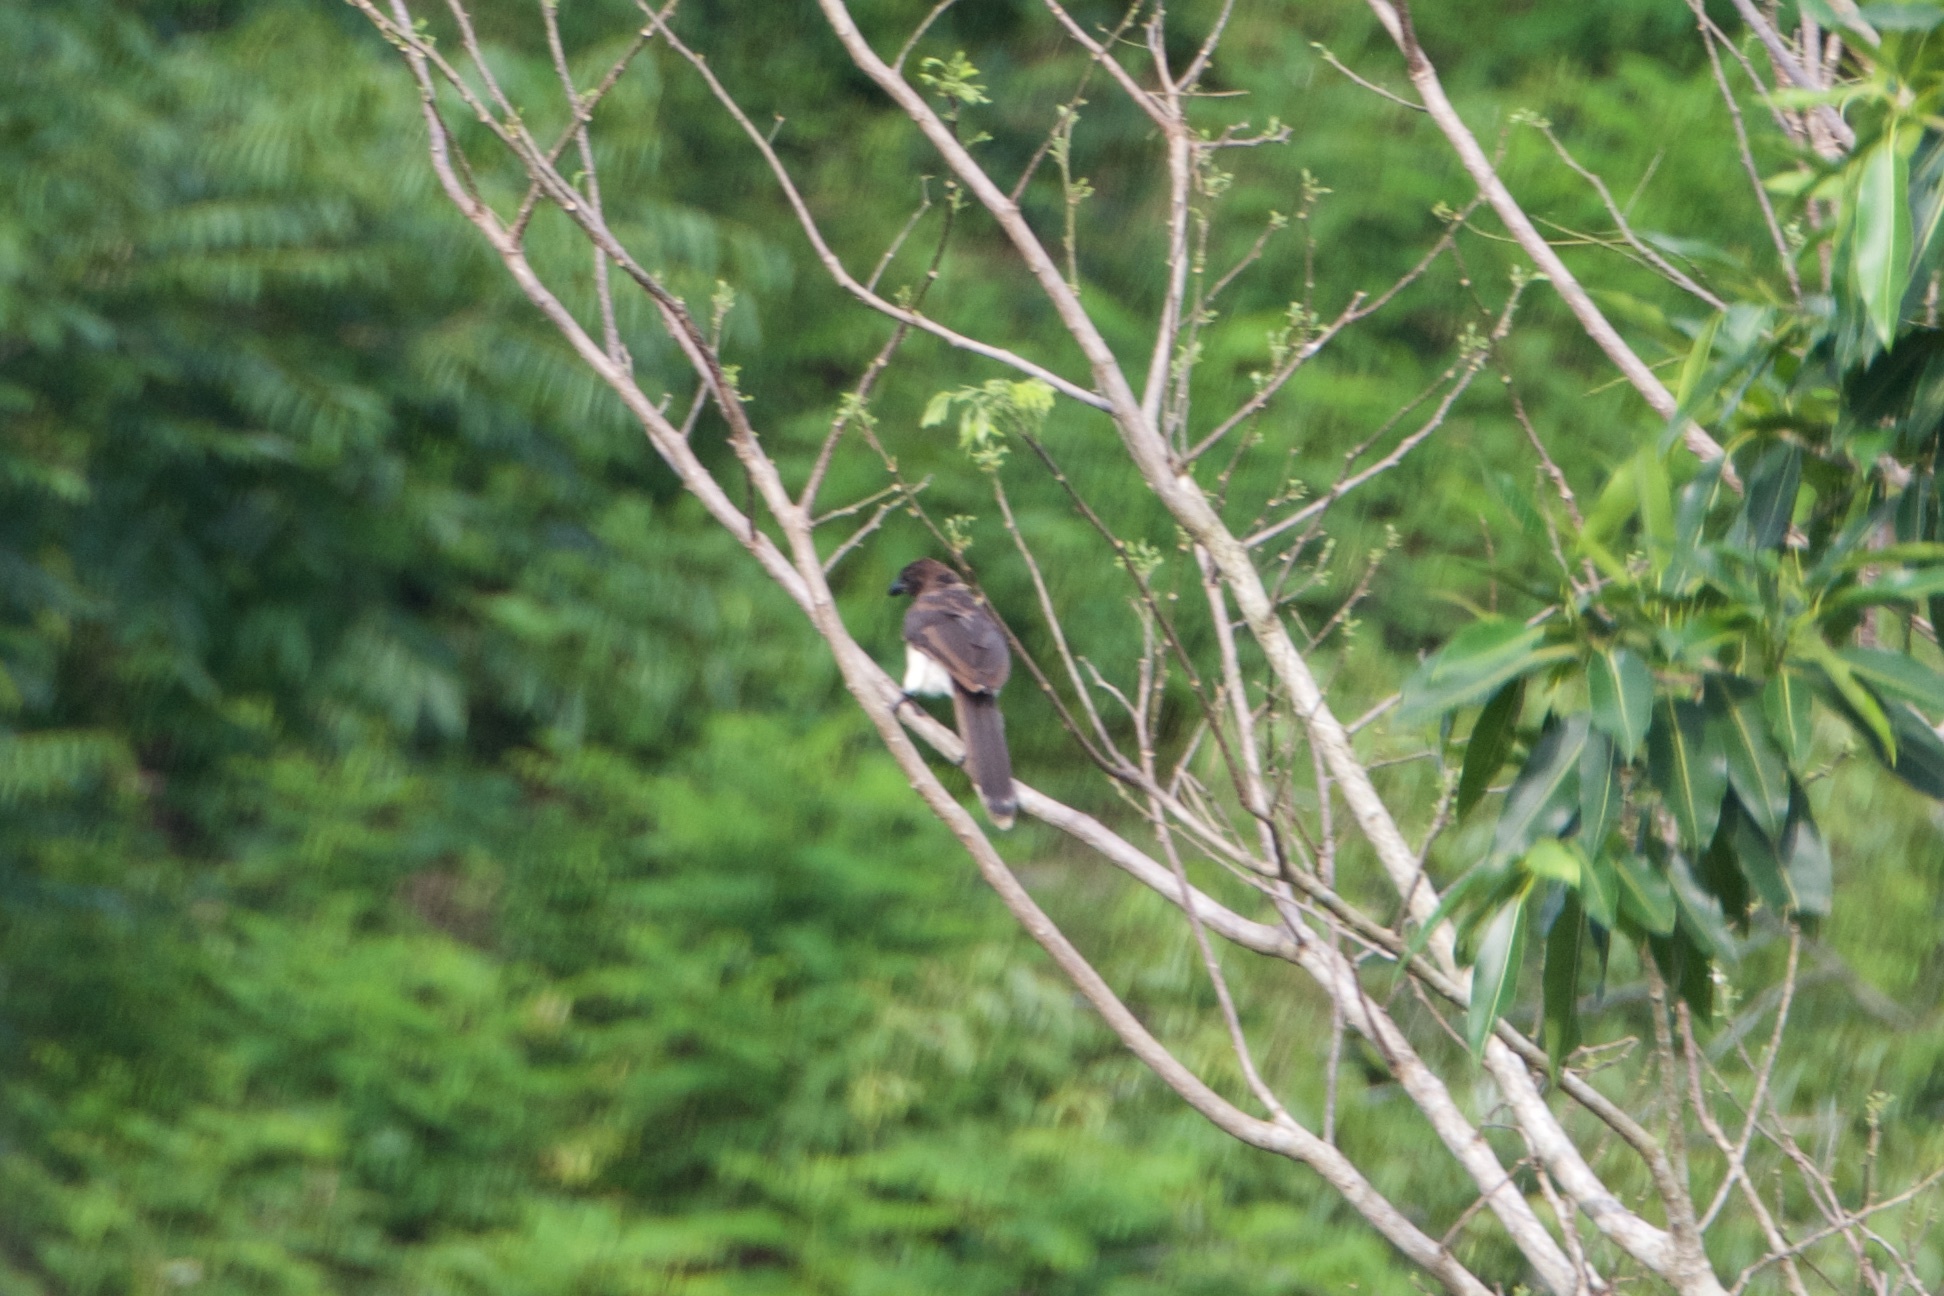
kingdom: Animalia
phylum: Chordata
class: Aves
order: Passeriformes
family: Corvidae
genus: Psilorhinus
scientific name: Psilorhinus morio
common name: Brown jay
